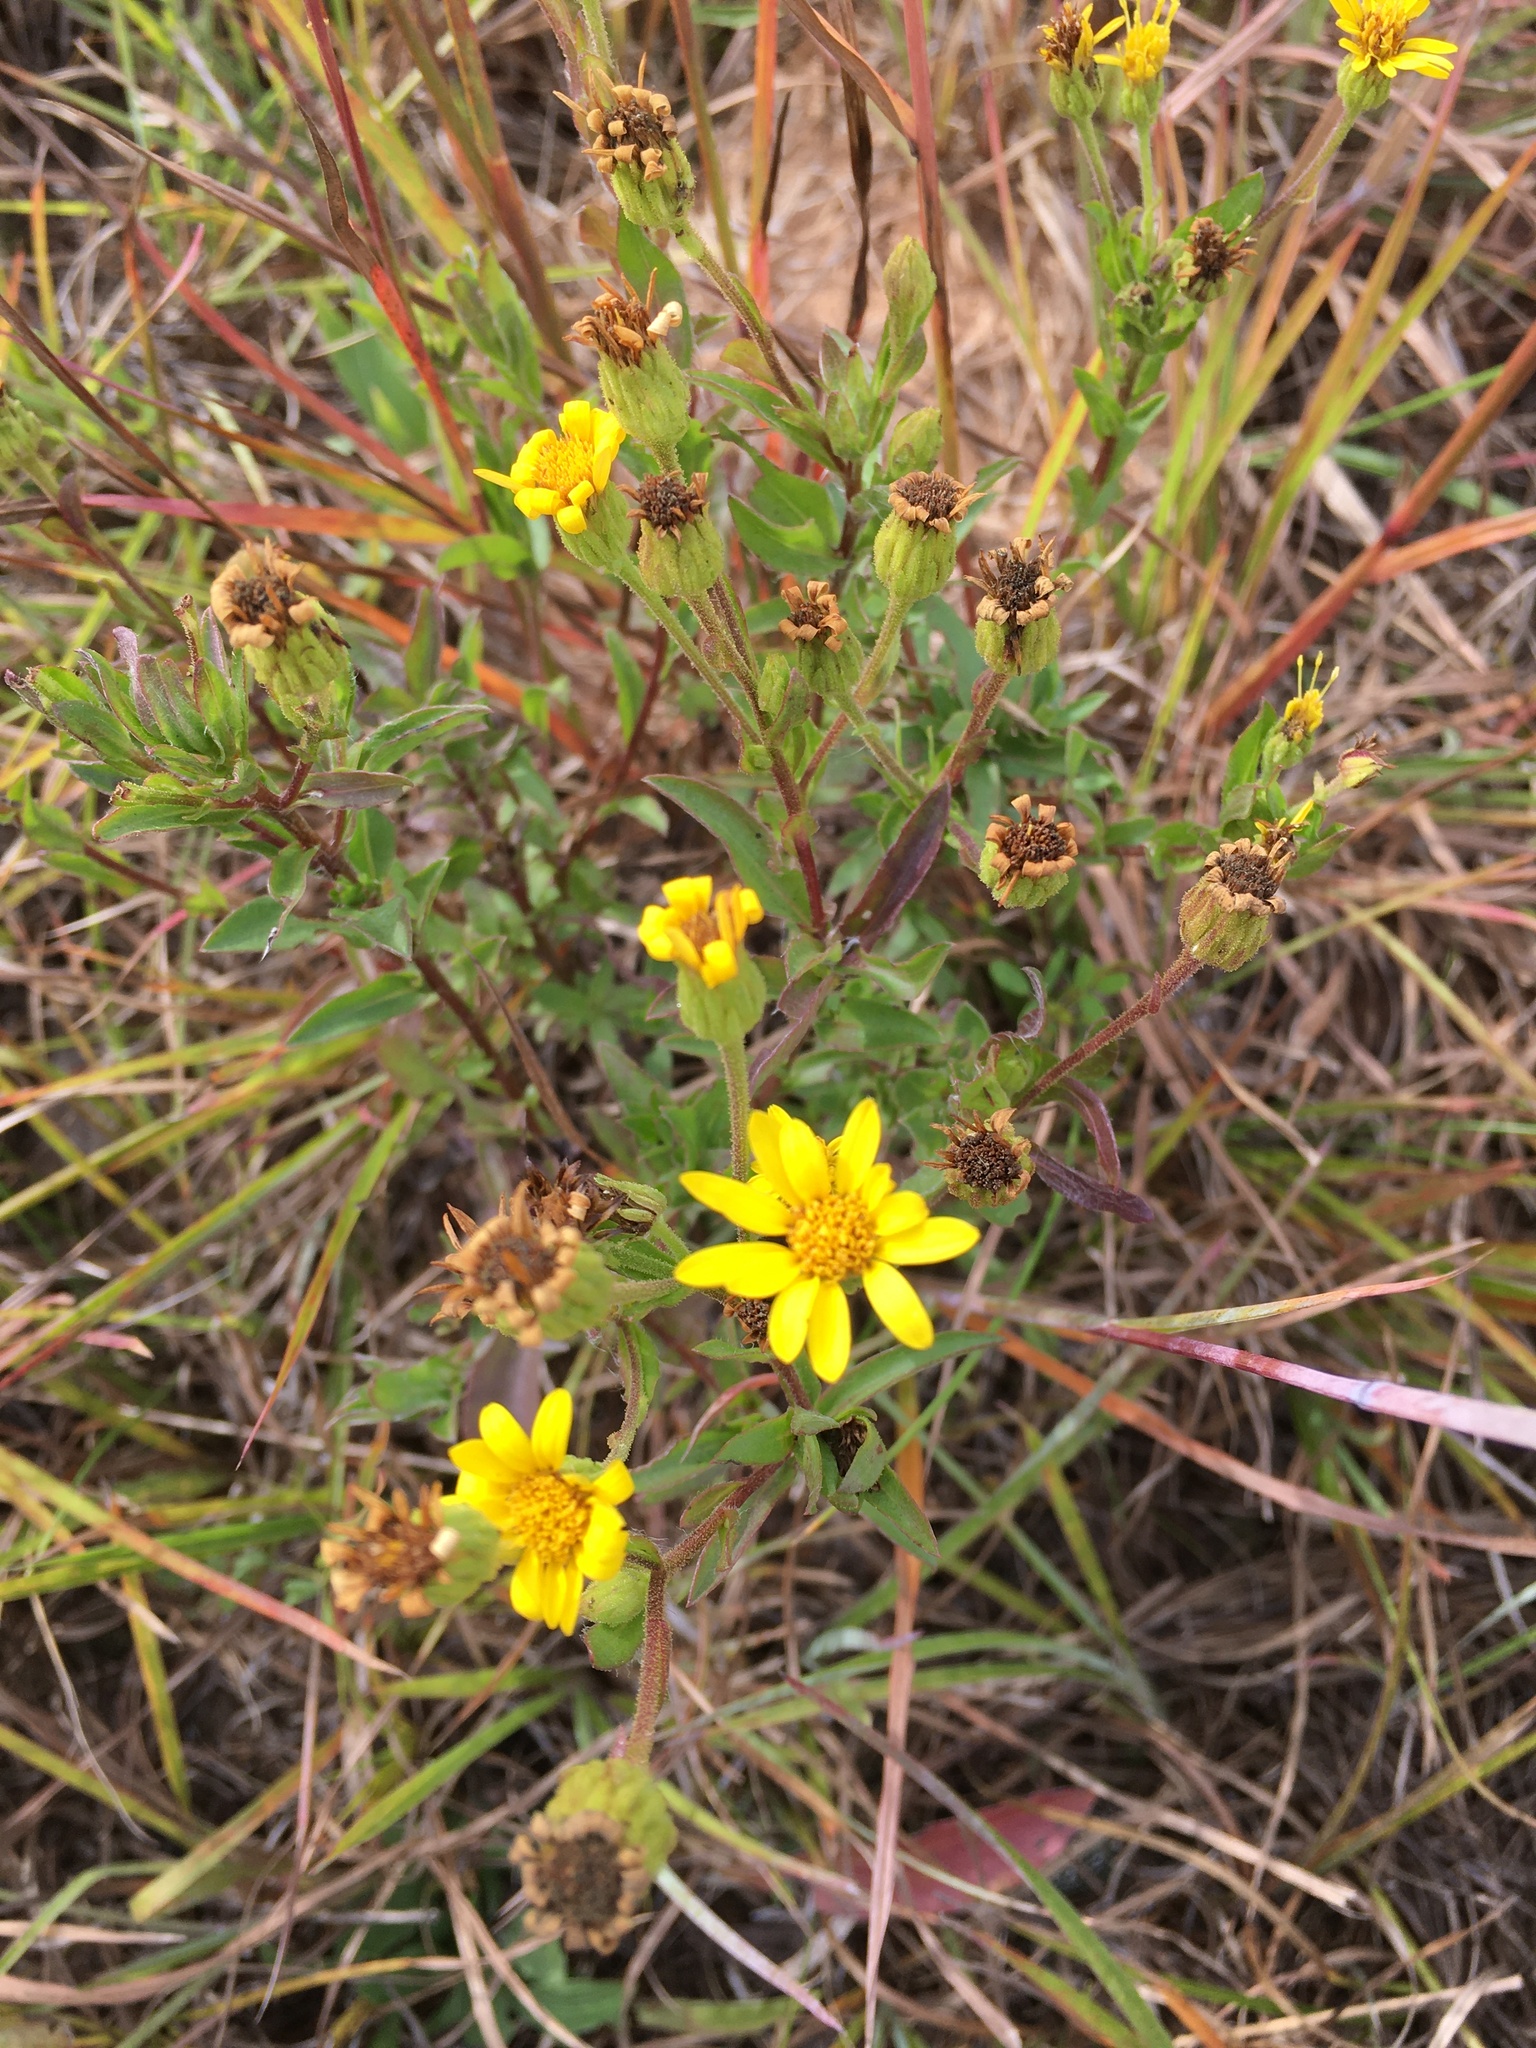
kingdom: Plantae
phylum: Tracheophyta
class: Magnoliopsida
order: Asterales
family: Asteraceae
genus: Chrysopsis
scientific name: Chrysopsis mariana
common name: Maryland golden-aster
